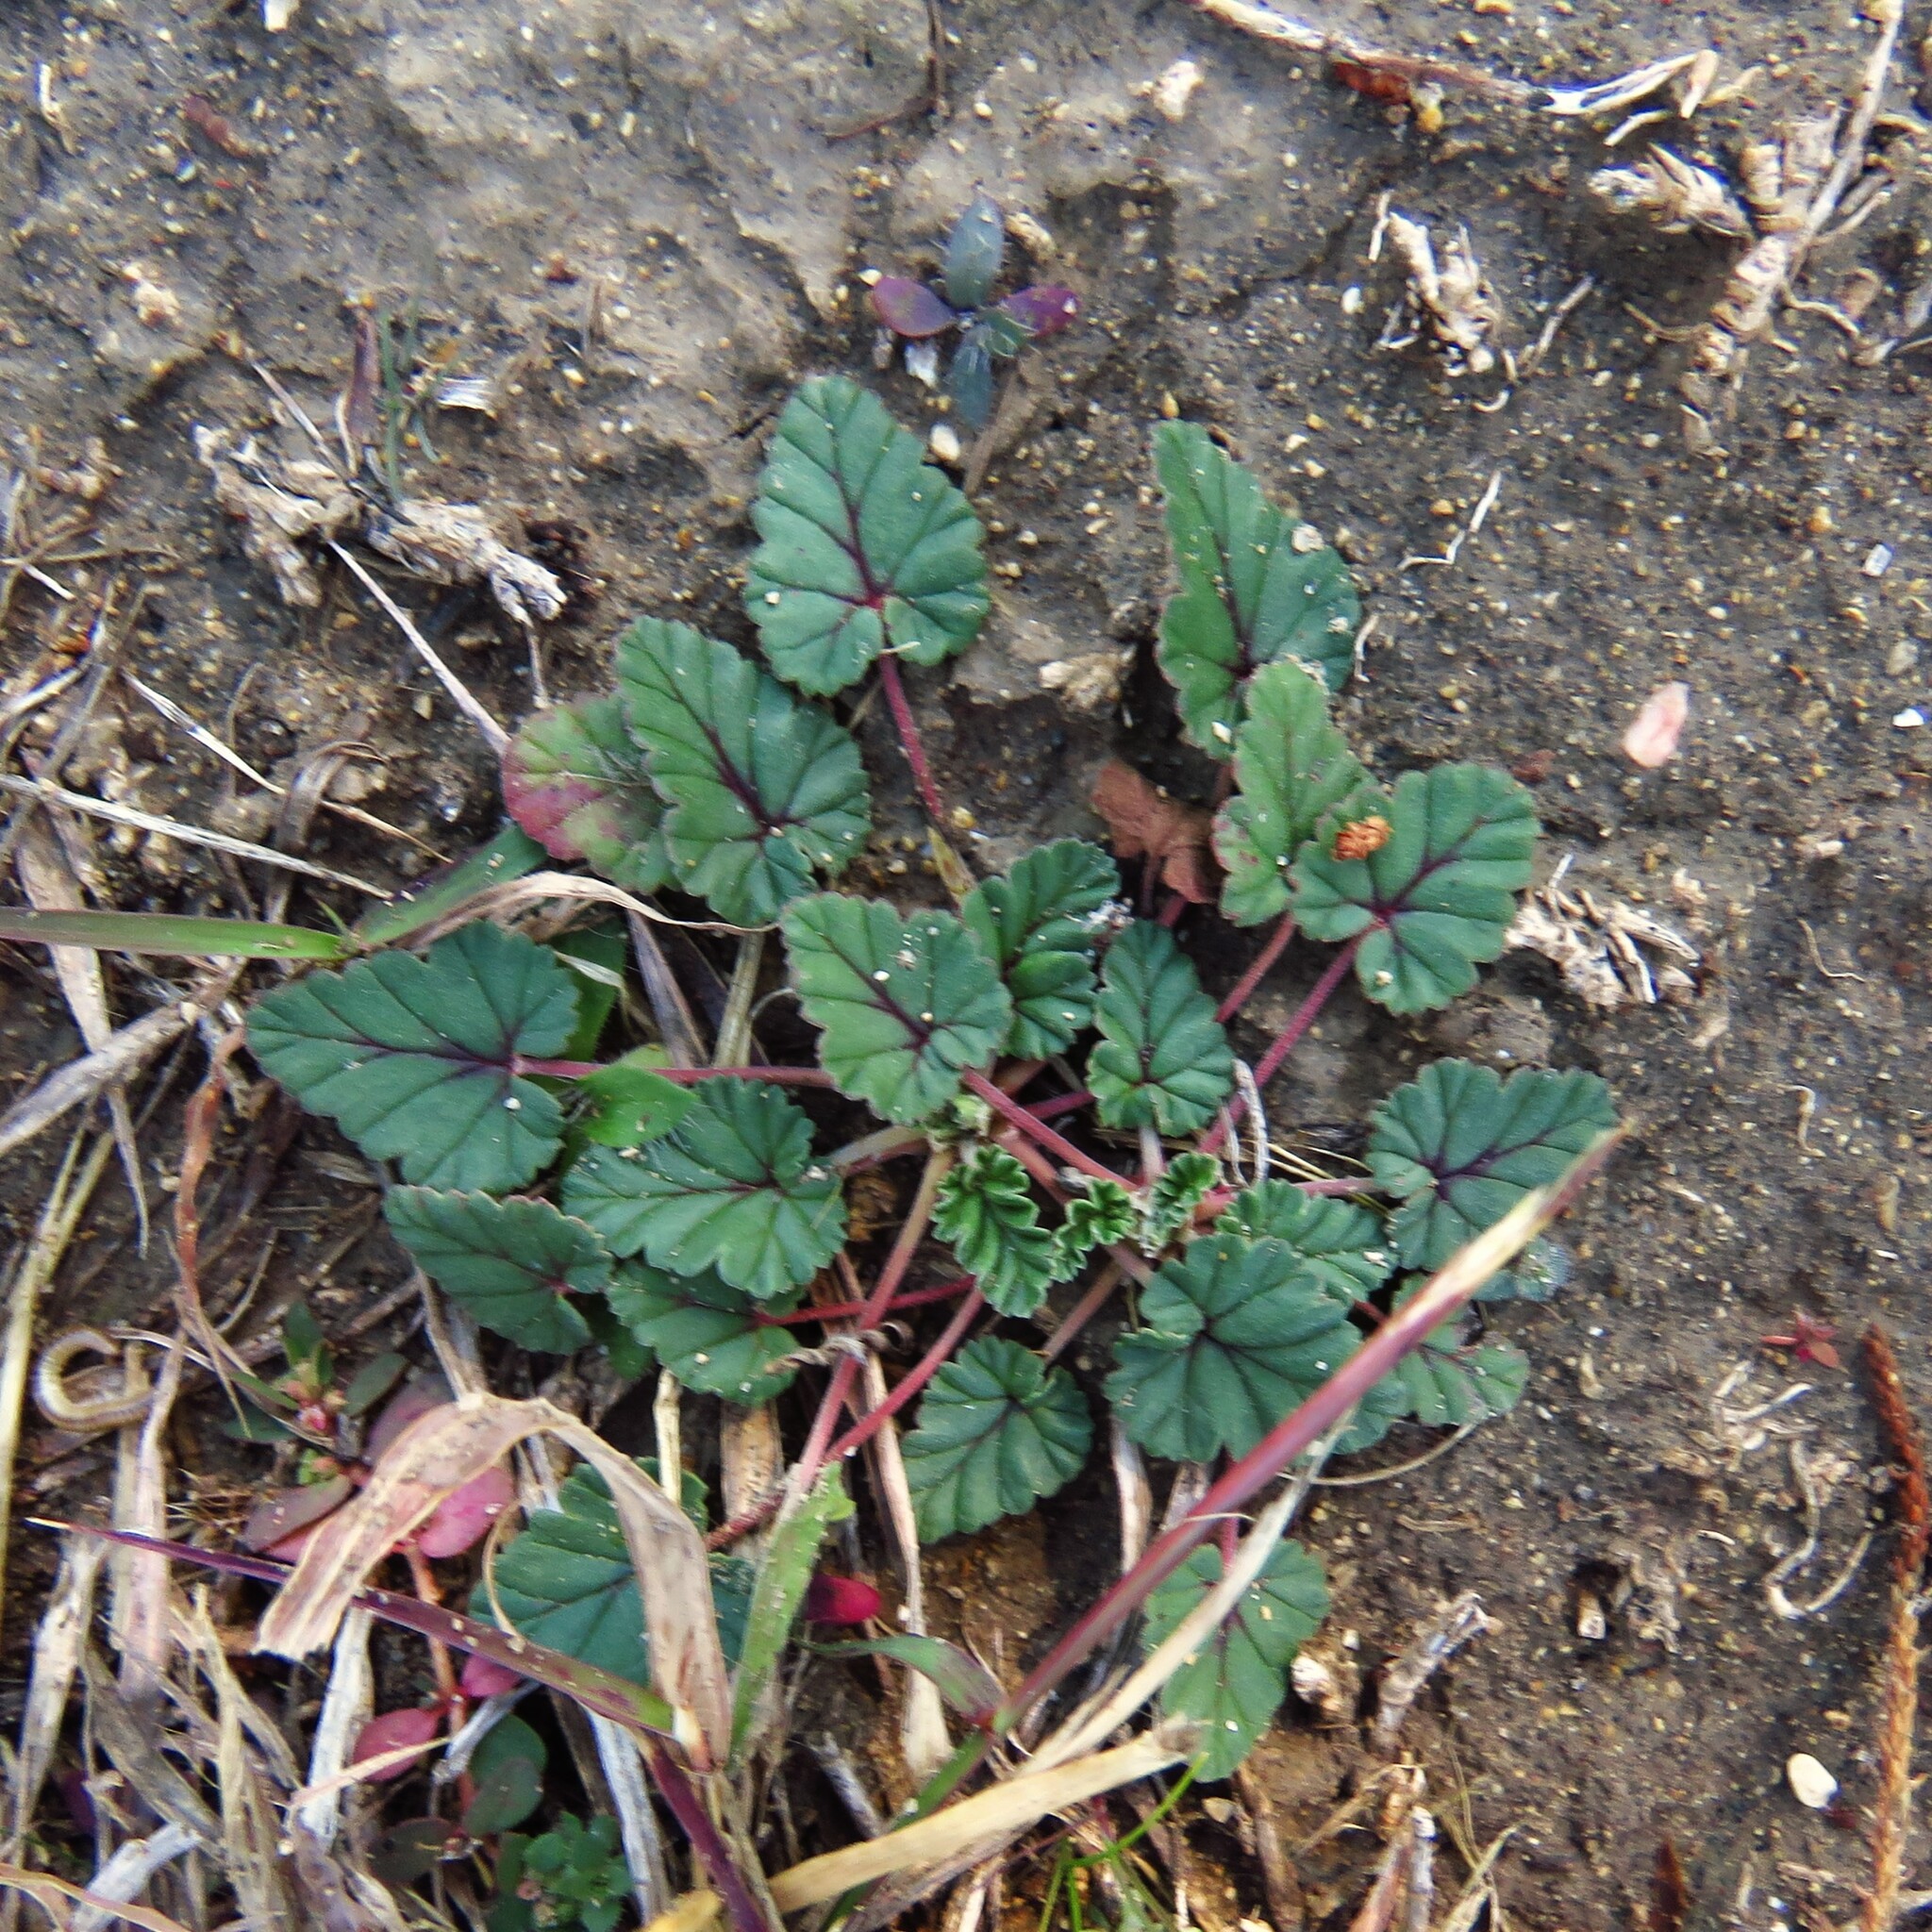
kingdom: Plantae
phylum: Tracheophyta
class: Magnoliopsida
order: Geraniales
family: Geraniaceae
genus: Erodium
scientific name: Erodium texanum
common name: Texas stork's-bill
